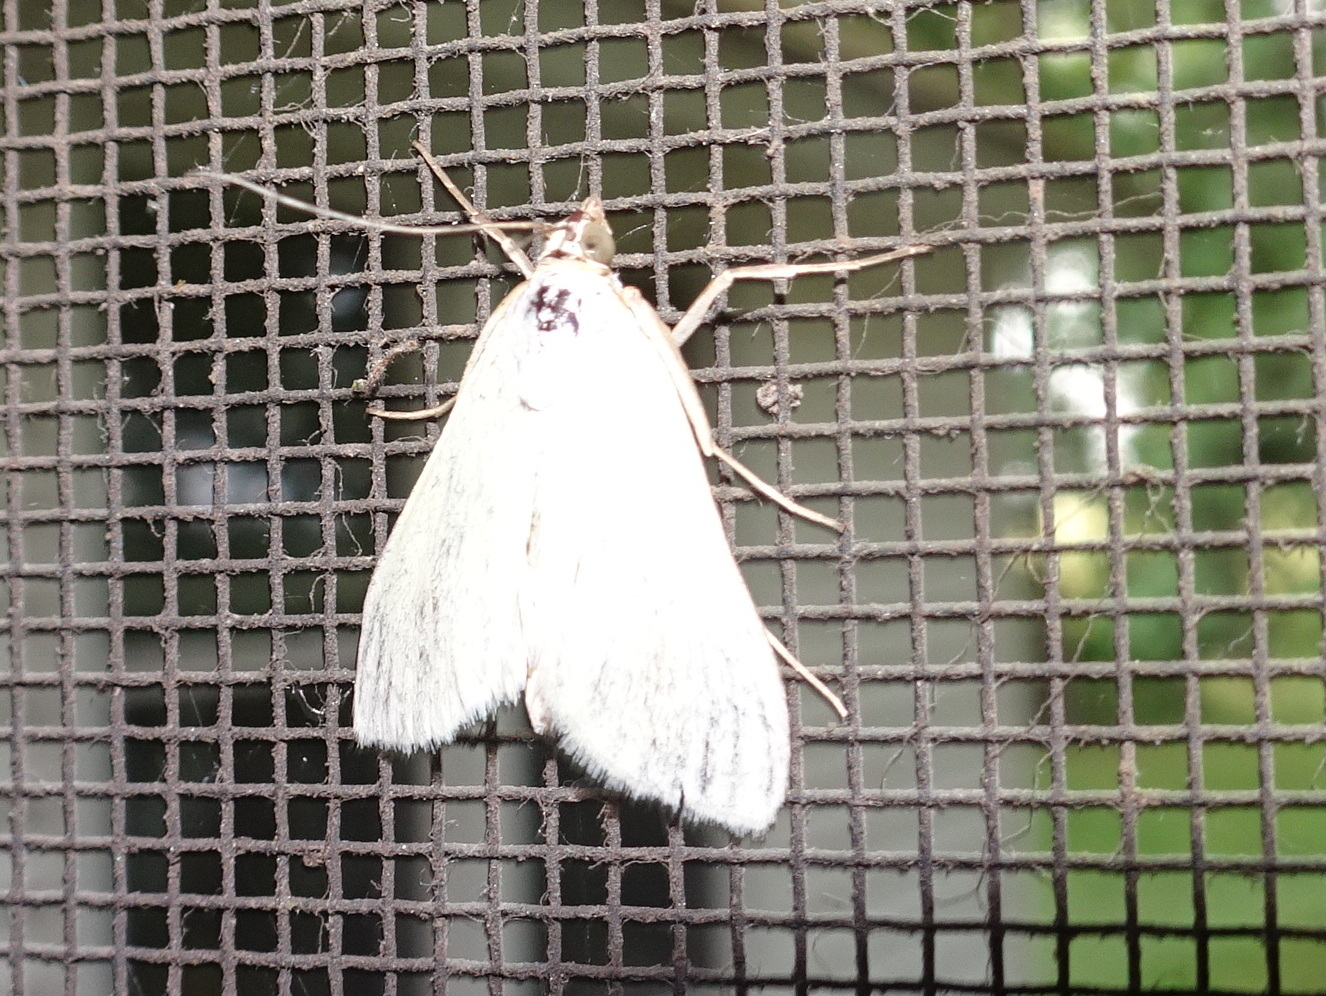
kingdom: Animalia
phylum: Arthropoda
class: Insecta
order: Lepidoptera
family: Crambidae
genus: Sitochroa
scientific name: Sitochroa palealis
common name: Greenish-yellow sitochroa moth
